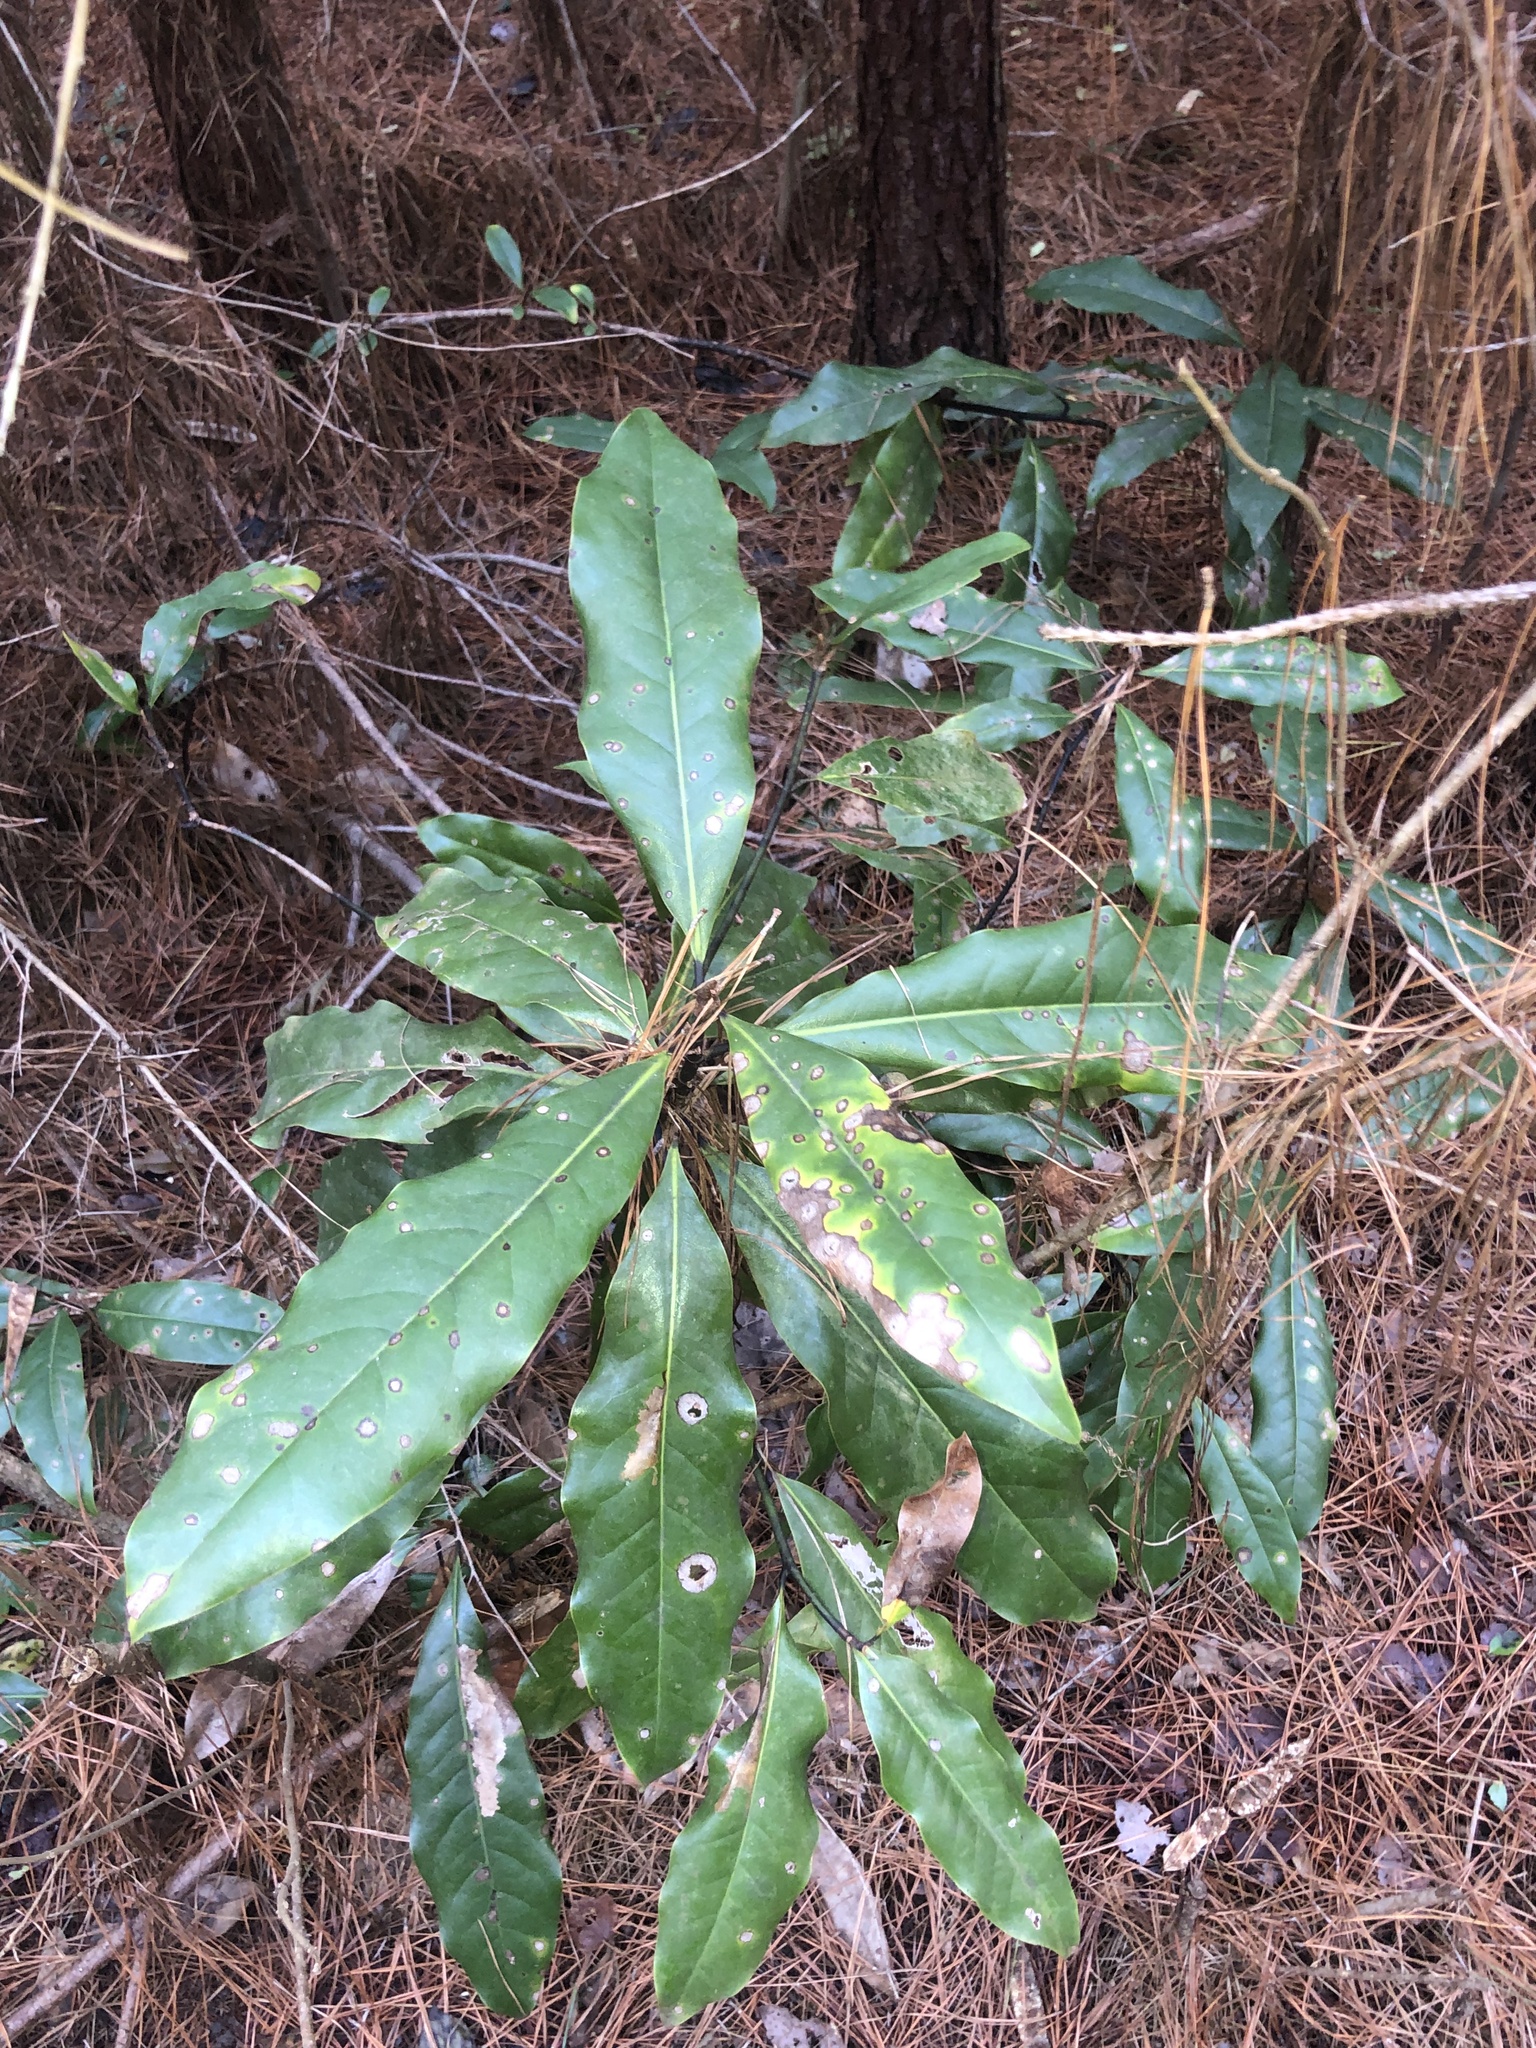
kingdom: Plantae
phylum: Tracheophyta
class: Magnoliopsida
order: Magnoliales
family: Magnoliaceae
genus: Magnolia
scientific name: Magnolia grandiflora
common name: Southern magnolia
